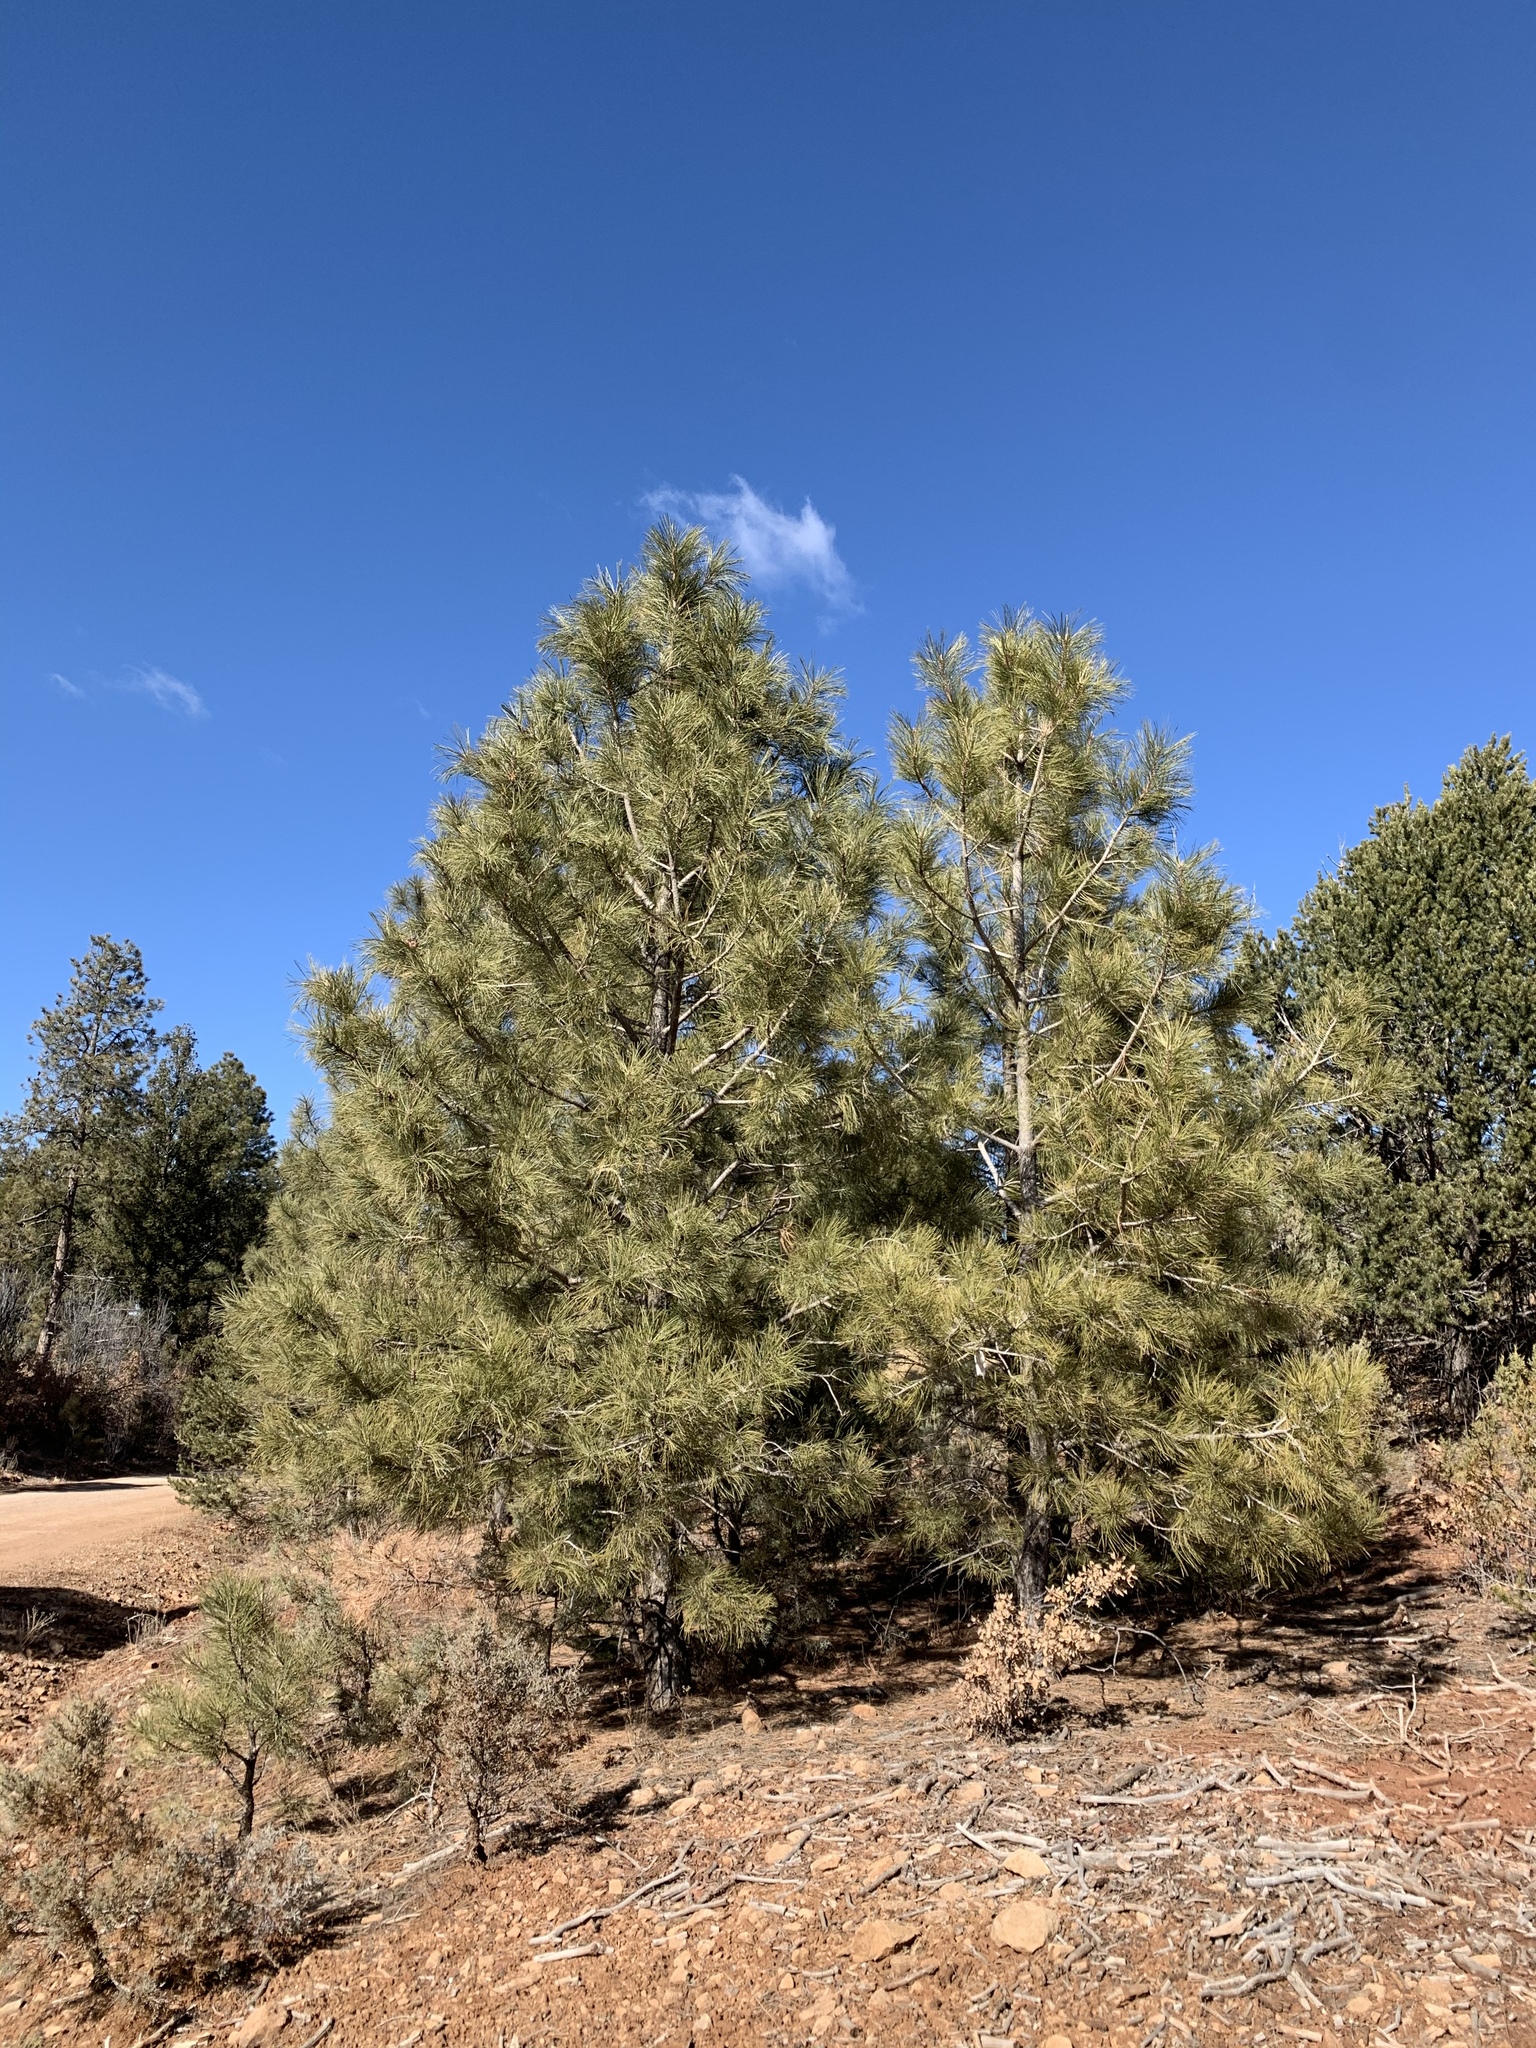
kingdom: Plantae
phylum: Tracheophyta
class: Pinopsida
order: Pinales
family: Pinaceae
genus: Pinus
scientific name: Pinus ponderosa
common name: Western yellow-pine
